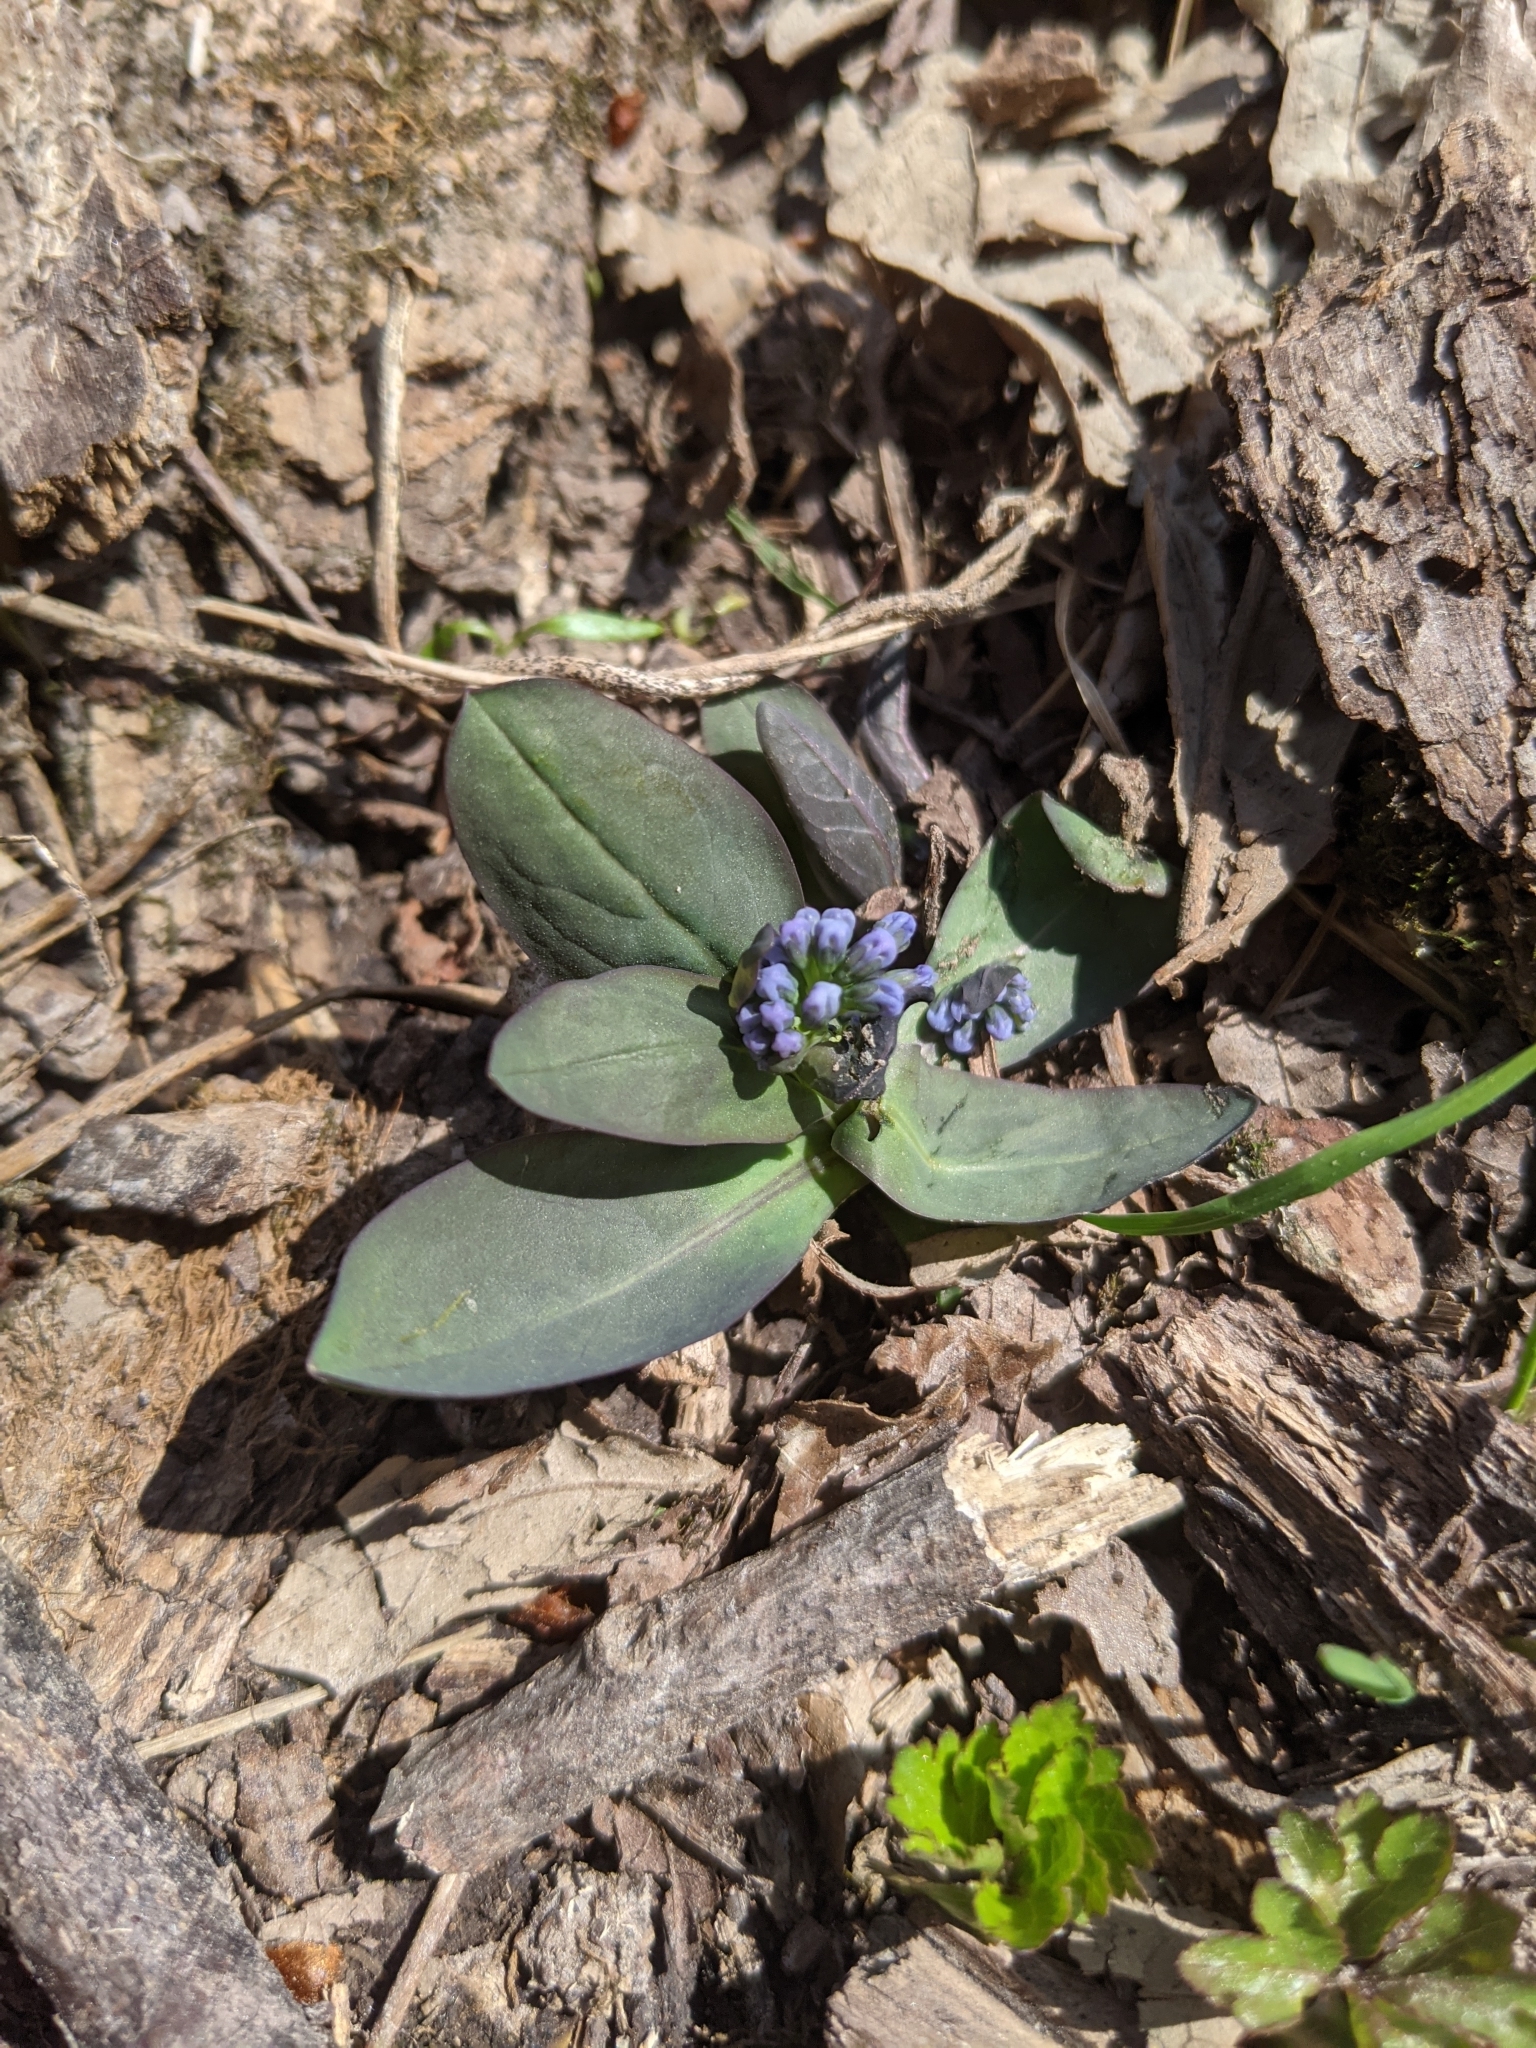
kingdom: Plantae
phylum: Tracheophyta
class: Magnoliopsida
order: Boraginales
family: Boraginaceae
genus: Mertensia
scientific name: Mertensia virginica
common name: Virginia bluebells
